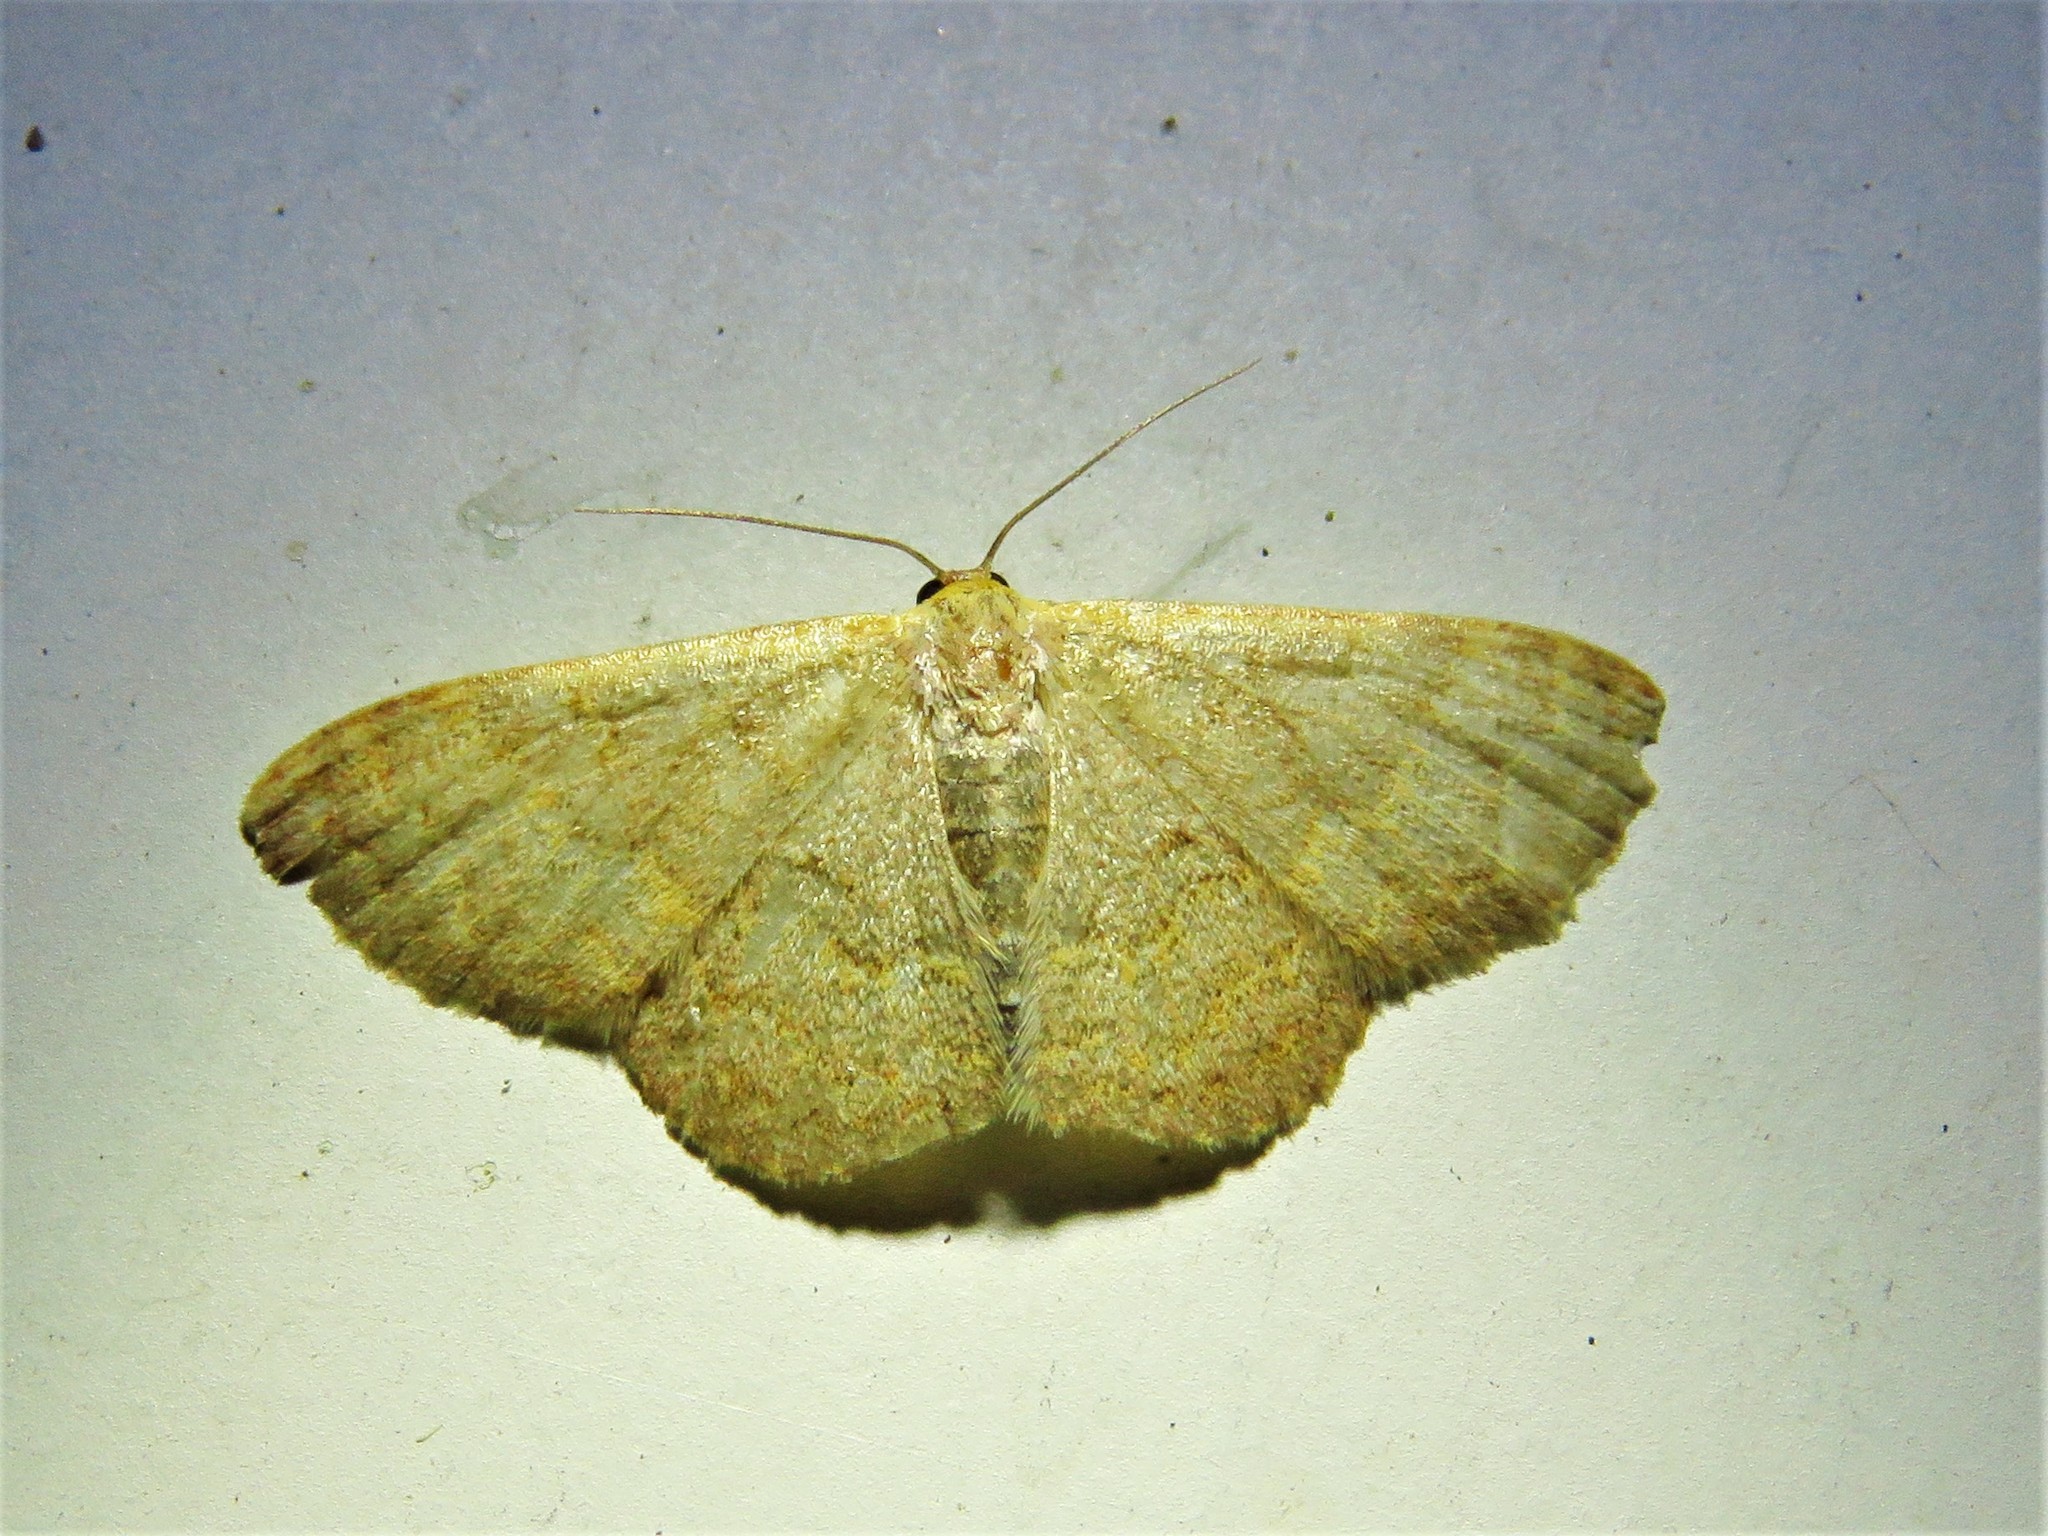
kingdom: Animalia
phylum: Arthropoda
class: Insecta
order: Lepidoptera
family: Geometridae
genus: Leptostales
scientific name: Leptostales pannaria
